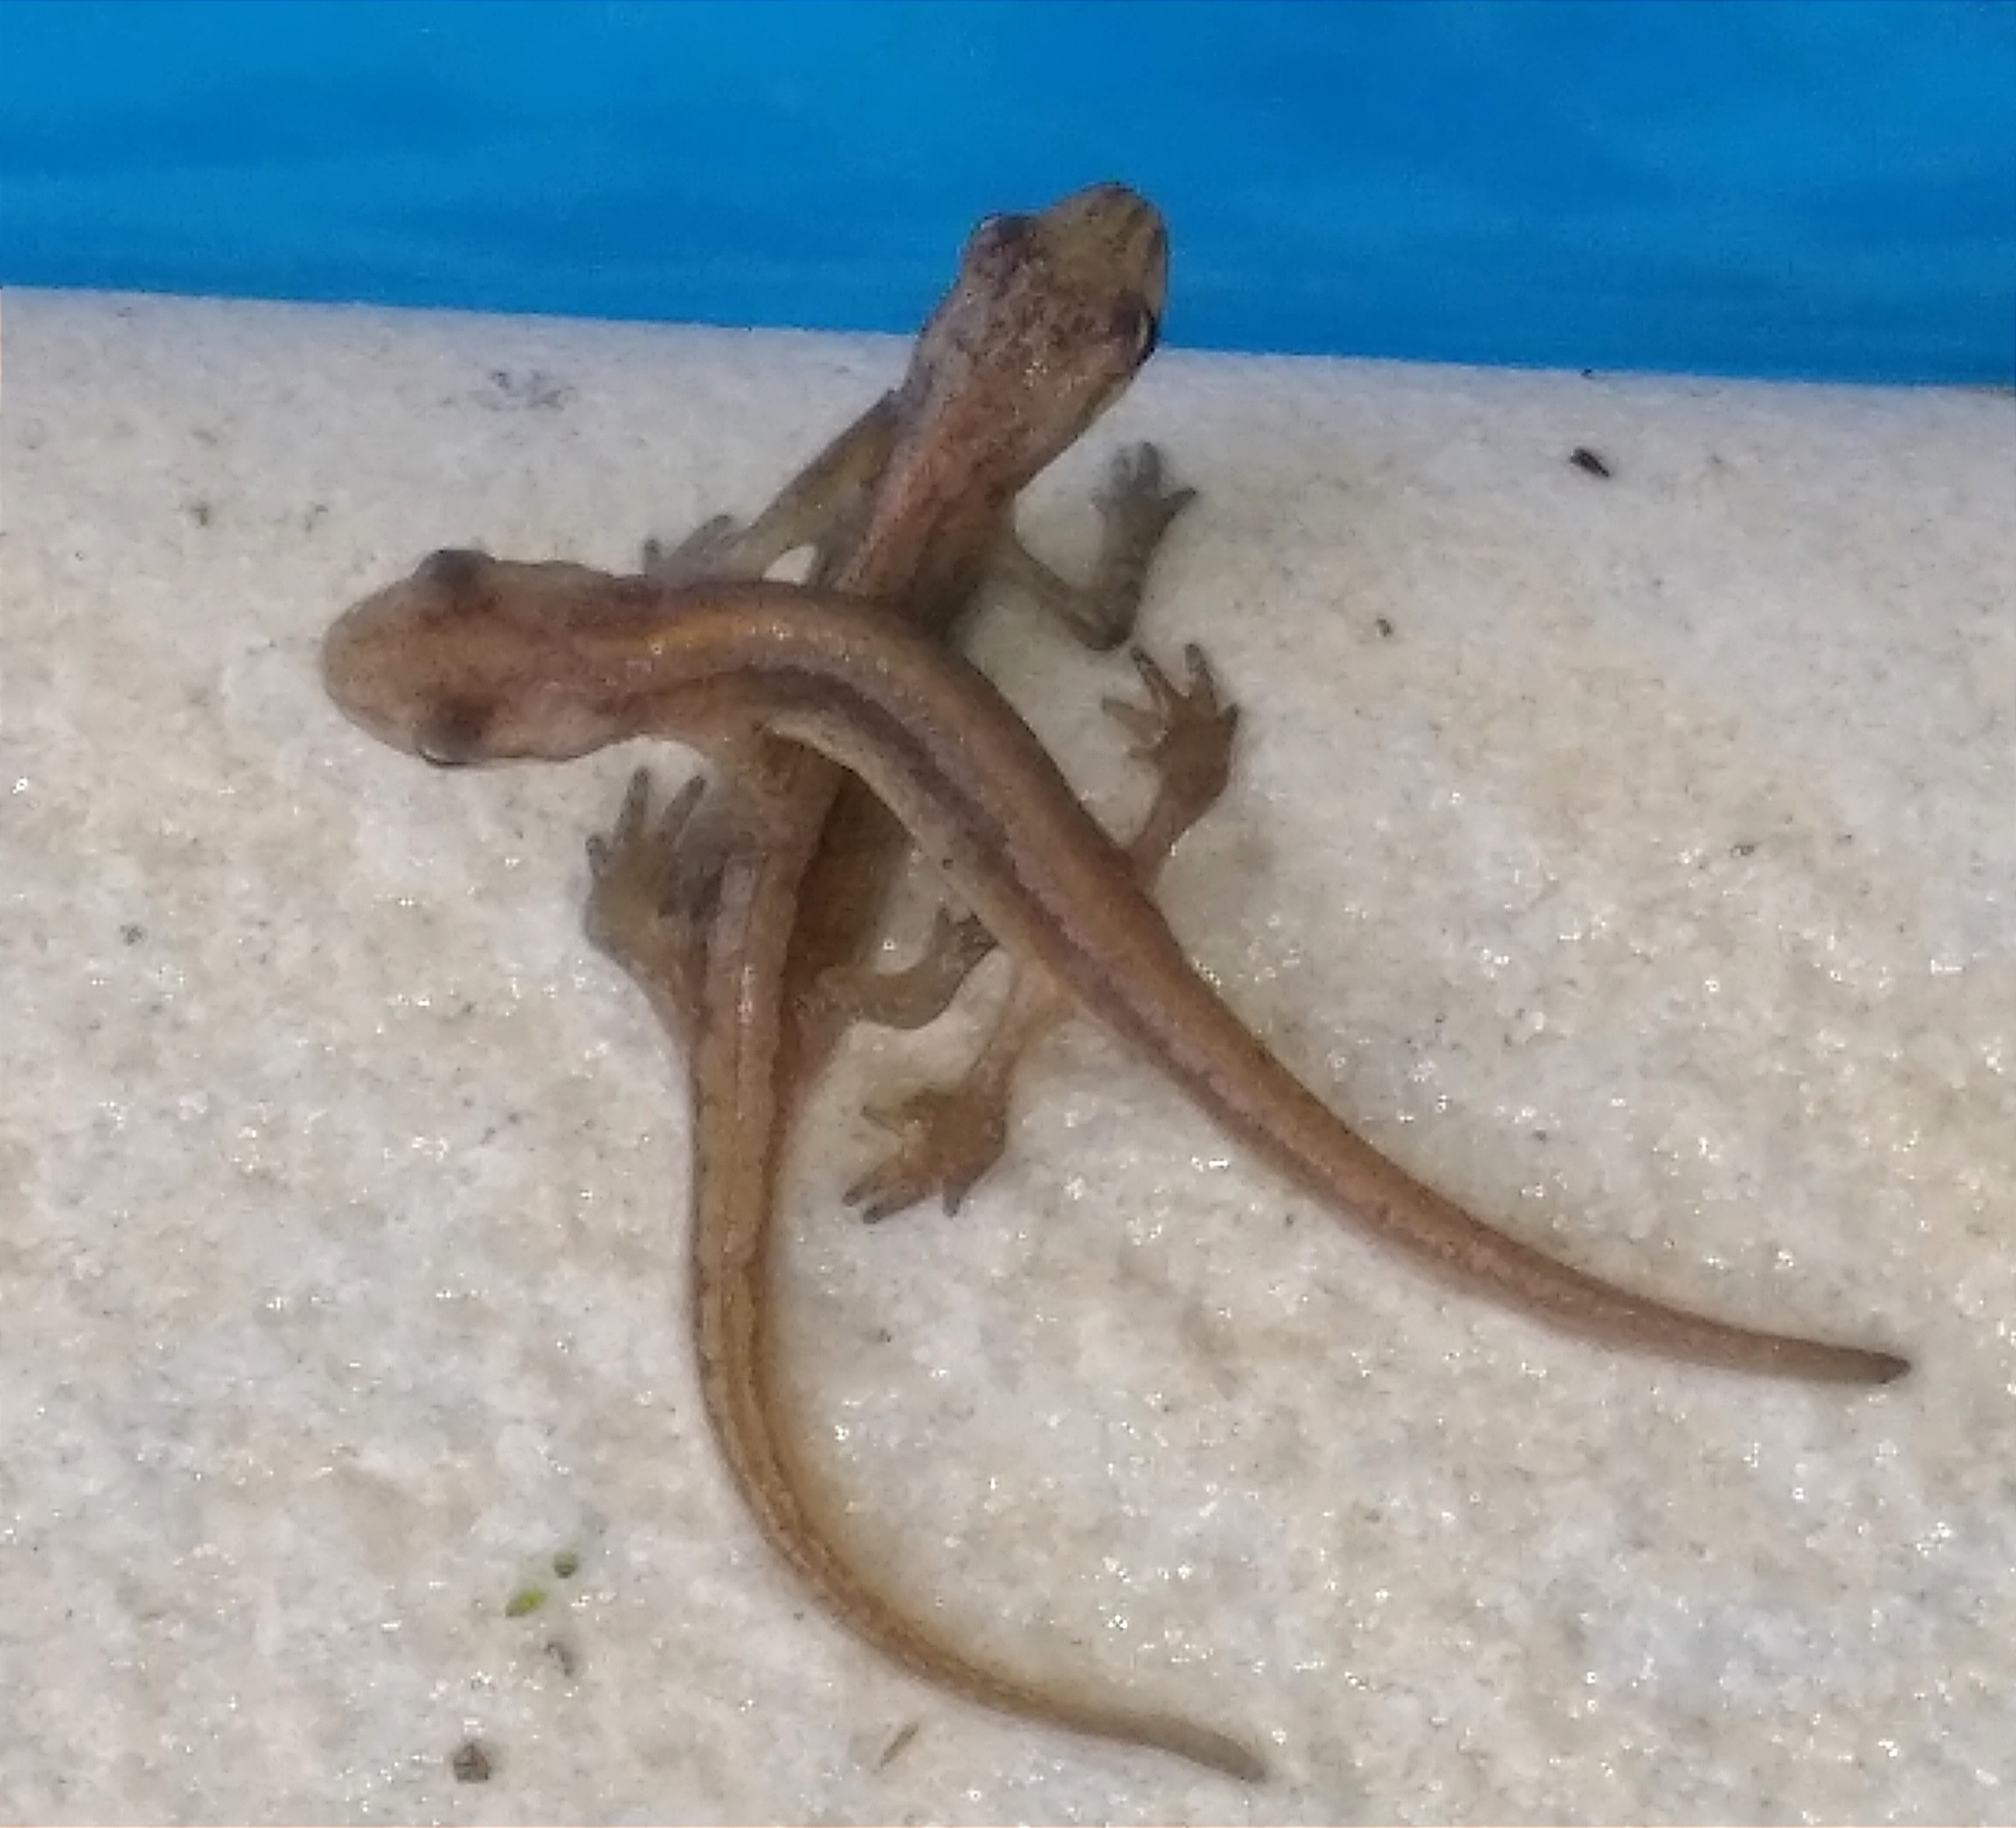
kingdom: Animalia
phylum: Chordata
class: Amphibia
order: Caudata
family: Salamandridae
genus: Lissotriton
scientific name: Lissotriton schmidtleri
